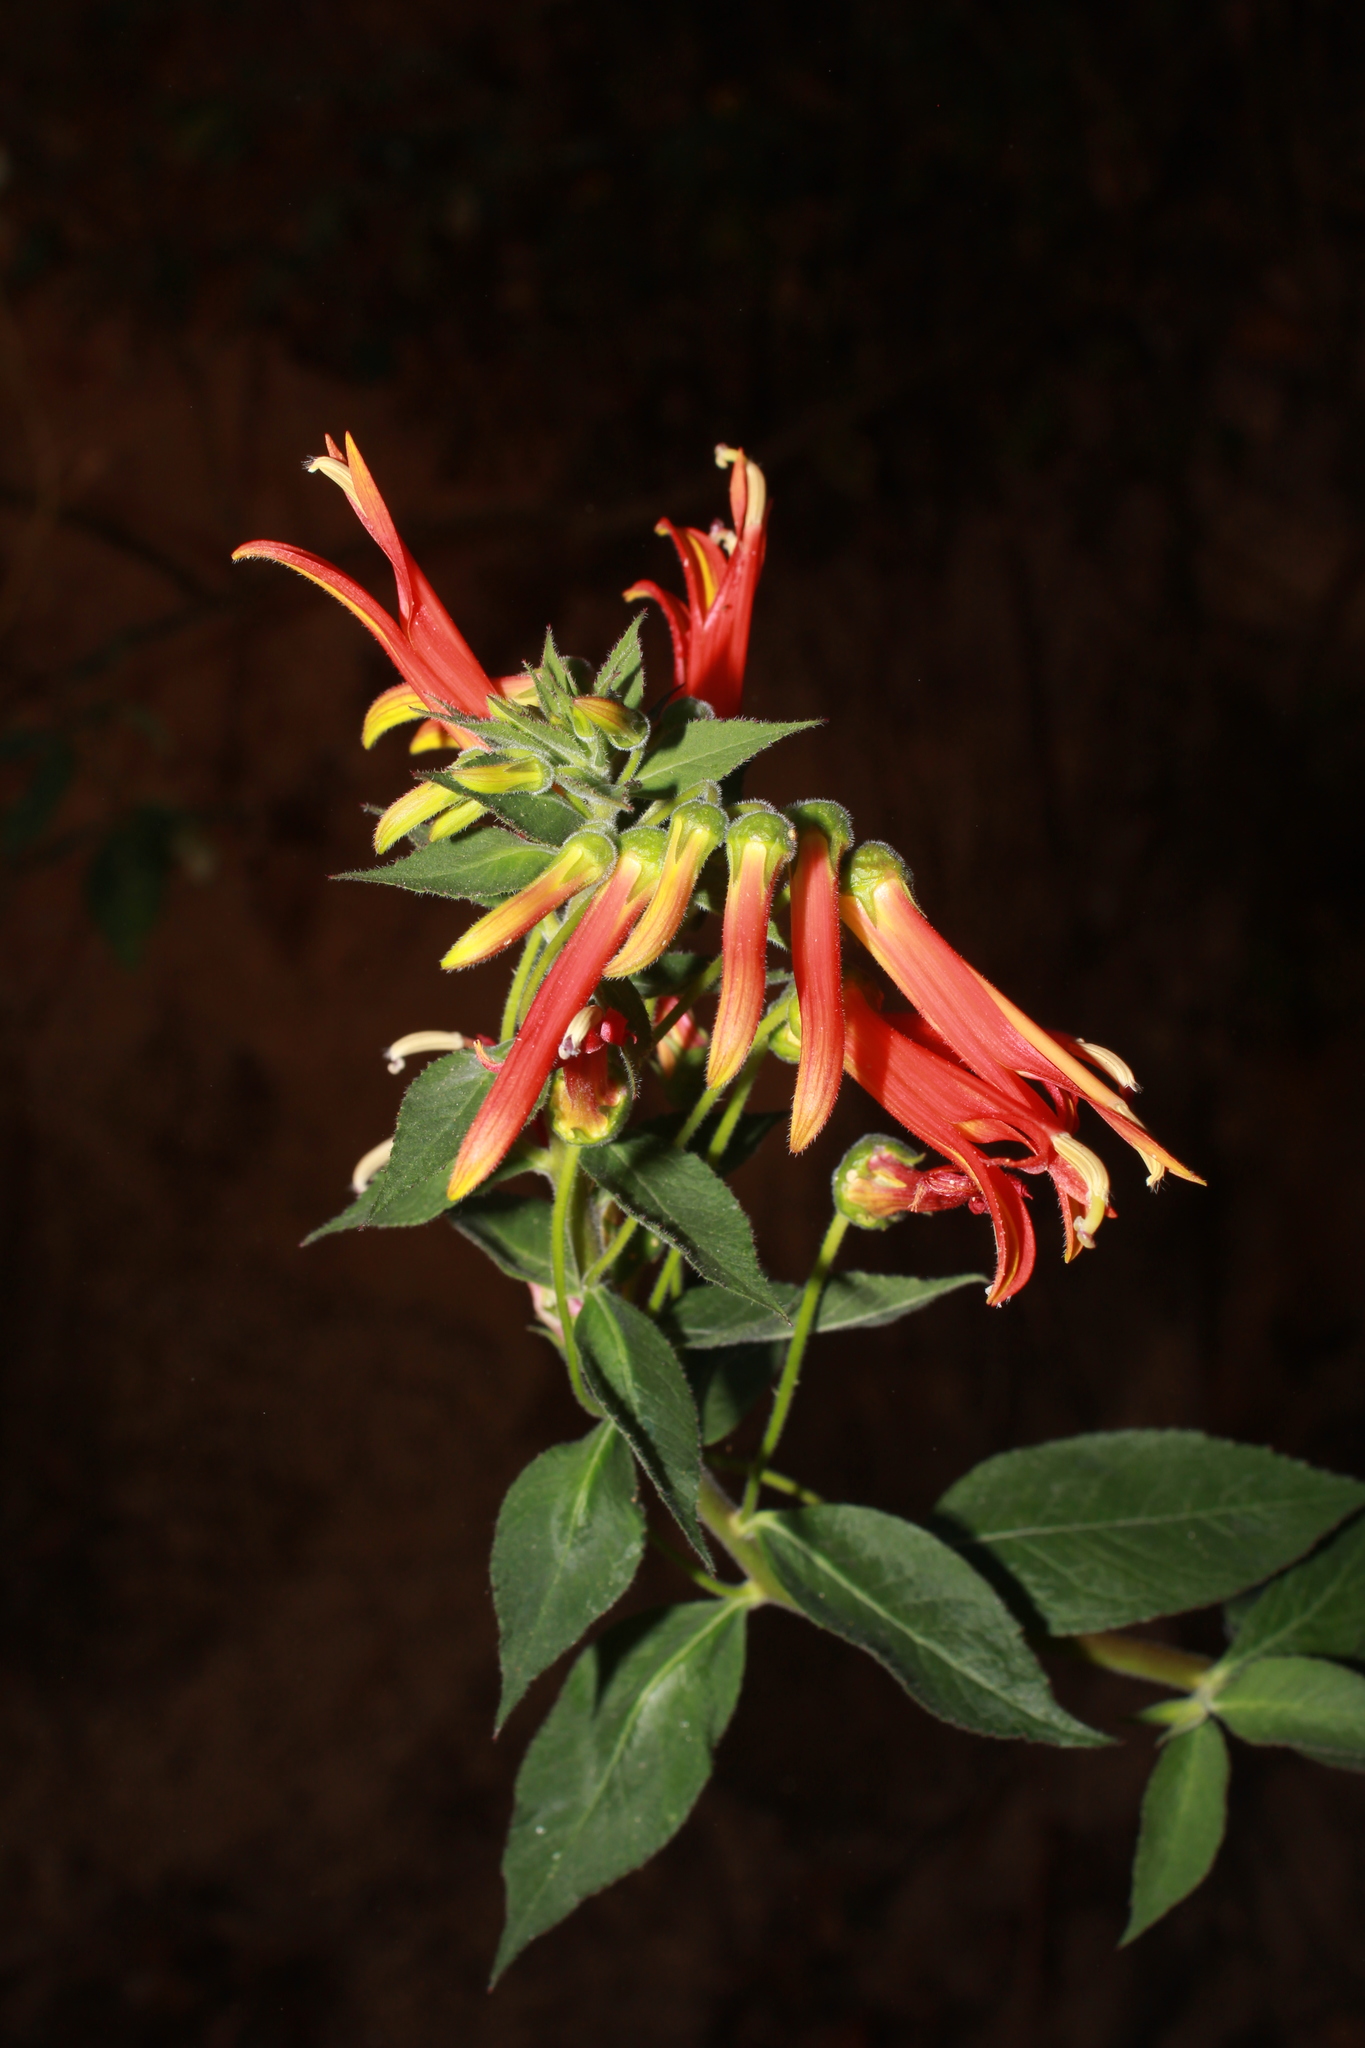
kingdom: Plantae
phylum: Tracheophyta
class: Magnoliopsida
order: Asterales
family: Campanulaceae
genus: Lobelia
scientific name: Lobelia laxiflora
